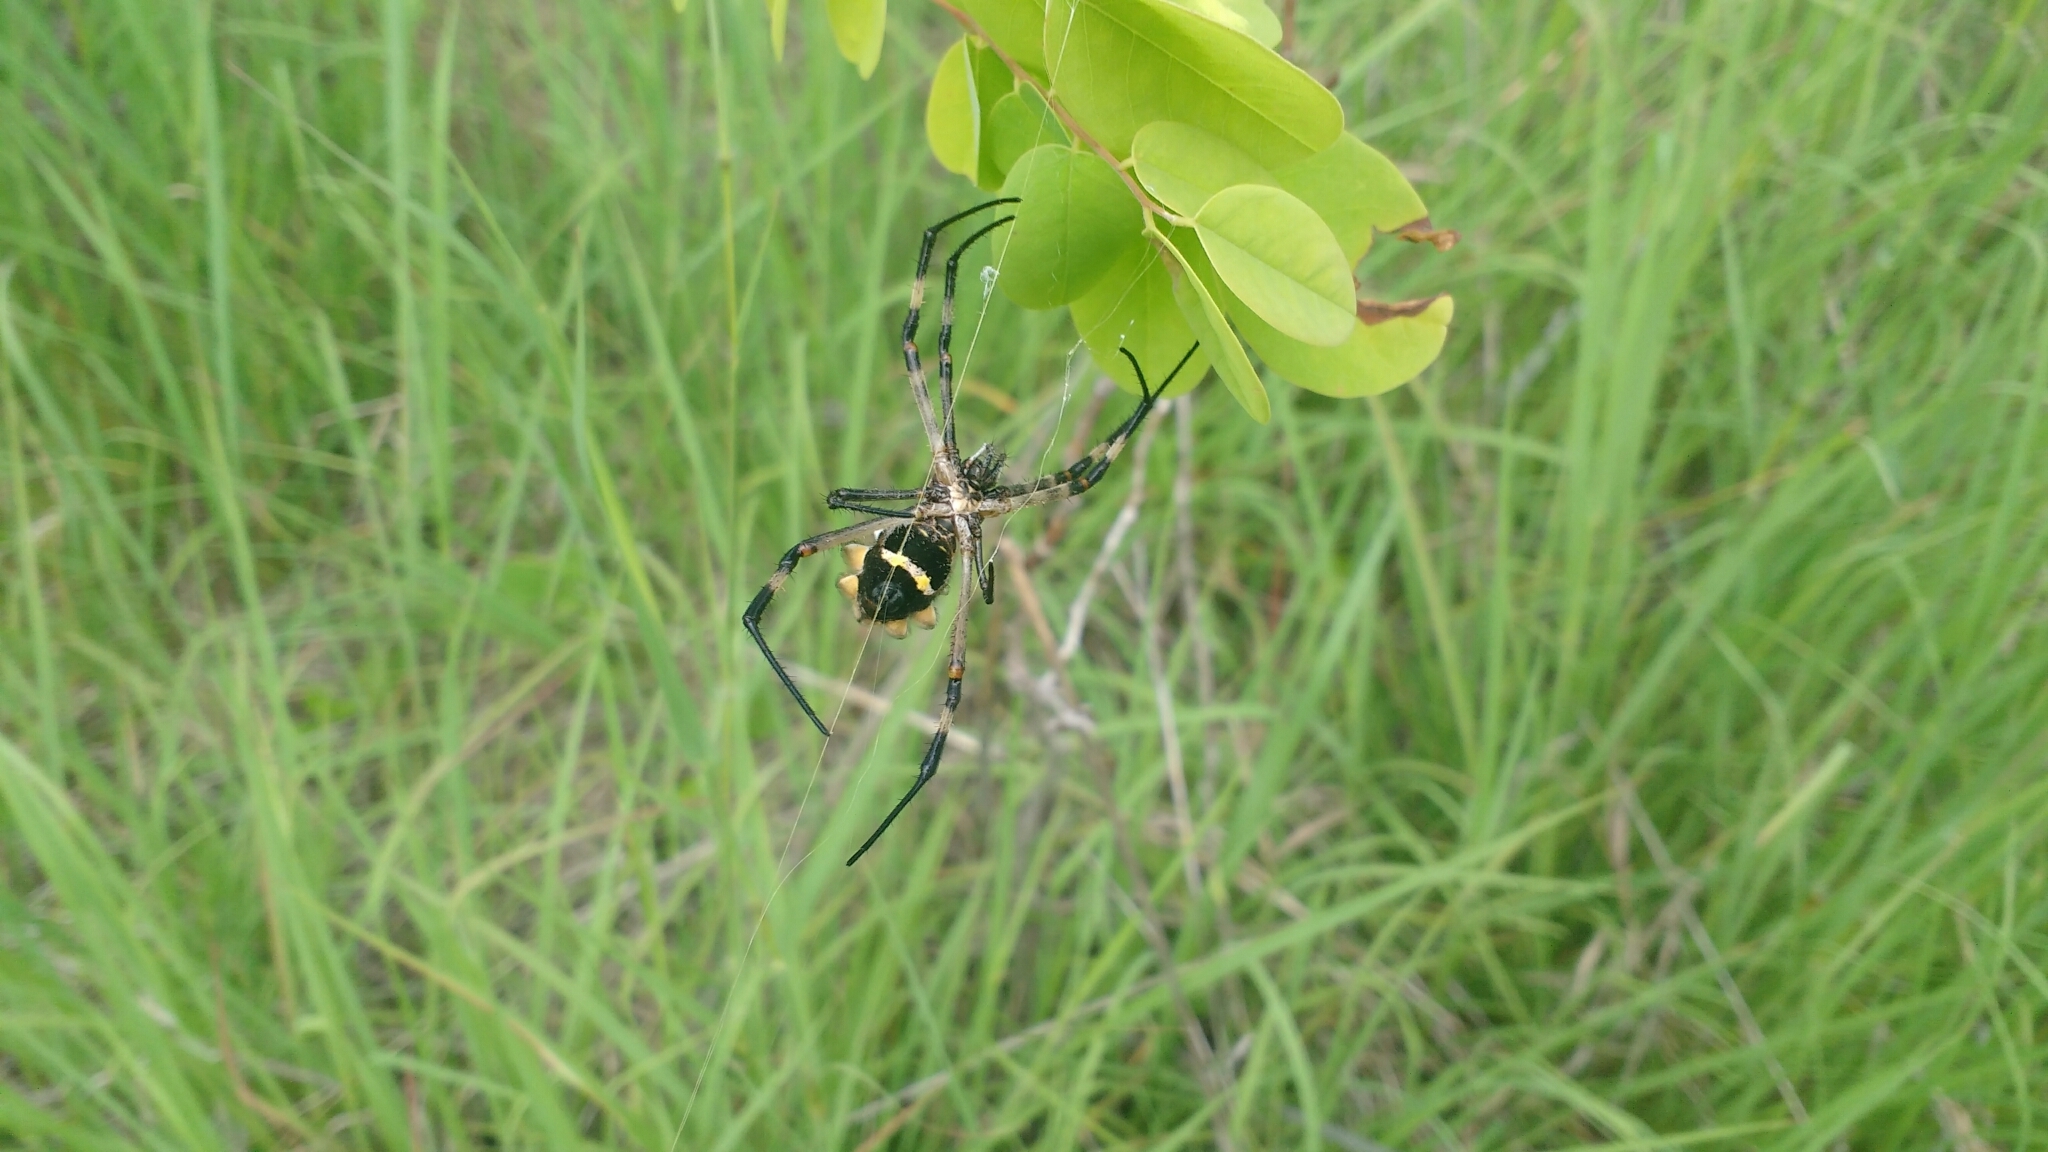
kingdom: Animalia
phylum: Arthropoda
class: Arachnida
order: Araneae
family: Araneidae
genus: Argiope
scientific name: Argiope argentata
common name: Orb weavers
